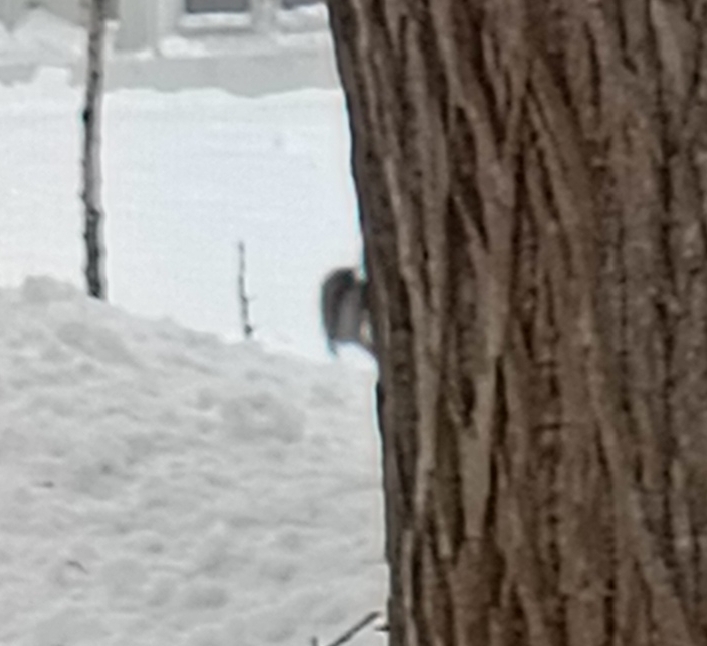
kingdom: Animalia
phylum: Chordata
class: Aves
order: Passeriformes
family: Certhiidae
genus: Certhia
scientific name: Certhia familiaris
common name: Eurasian treecreeper
